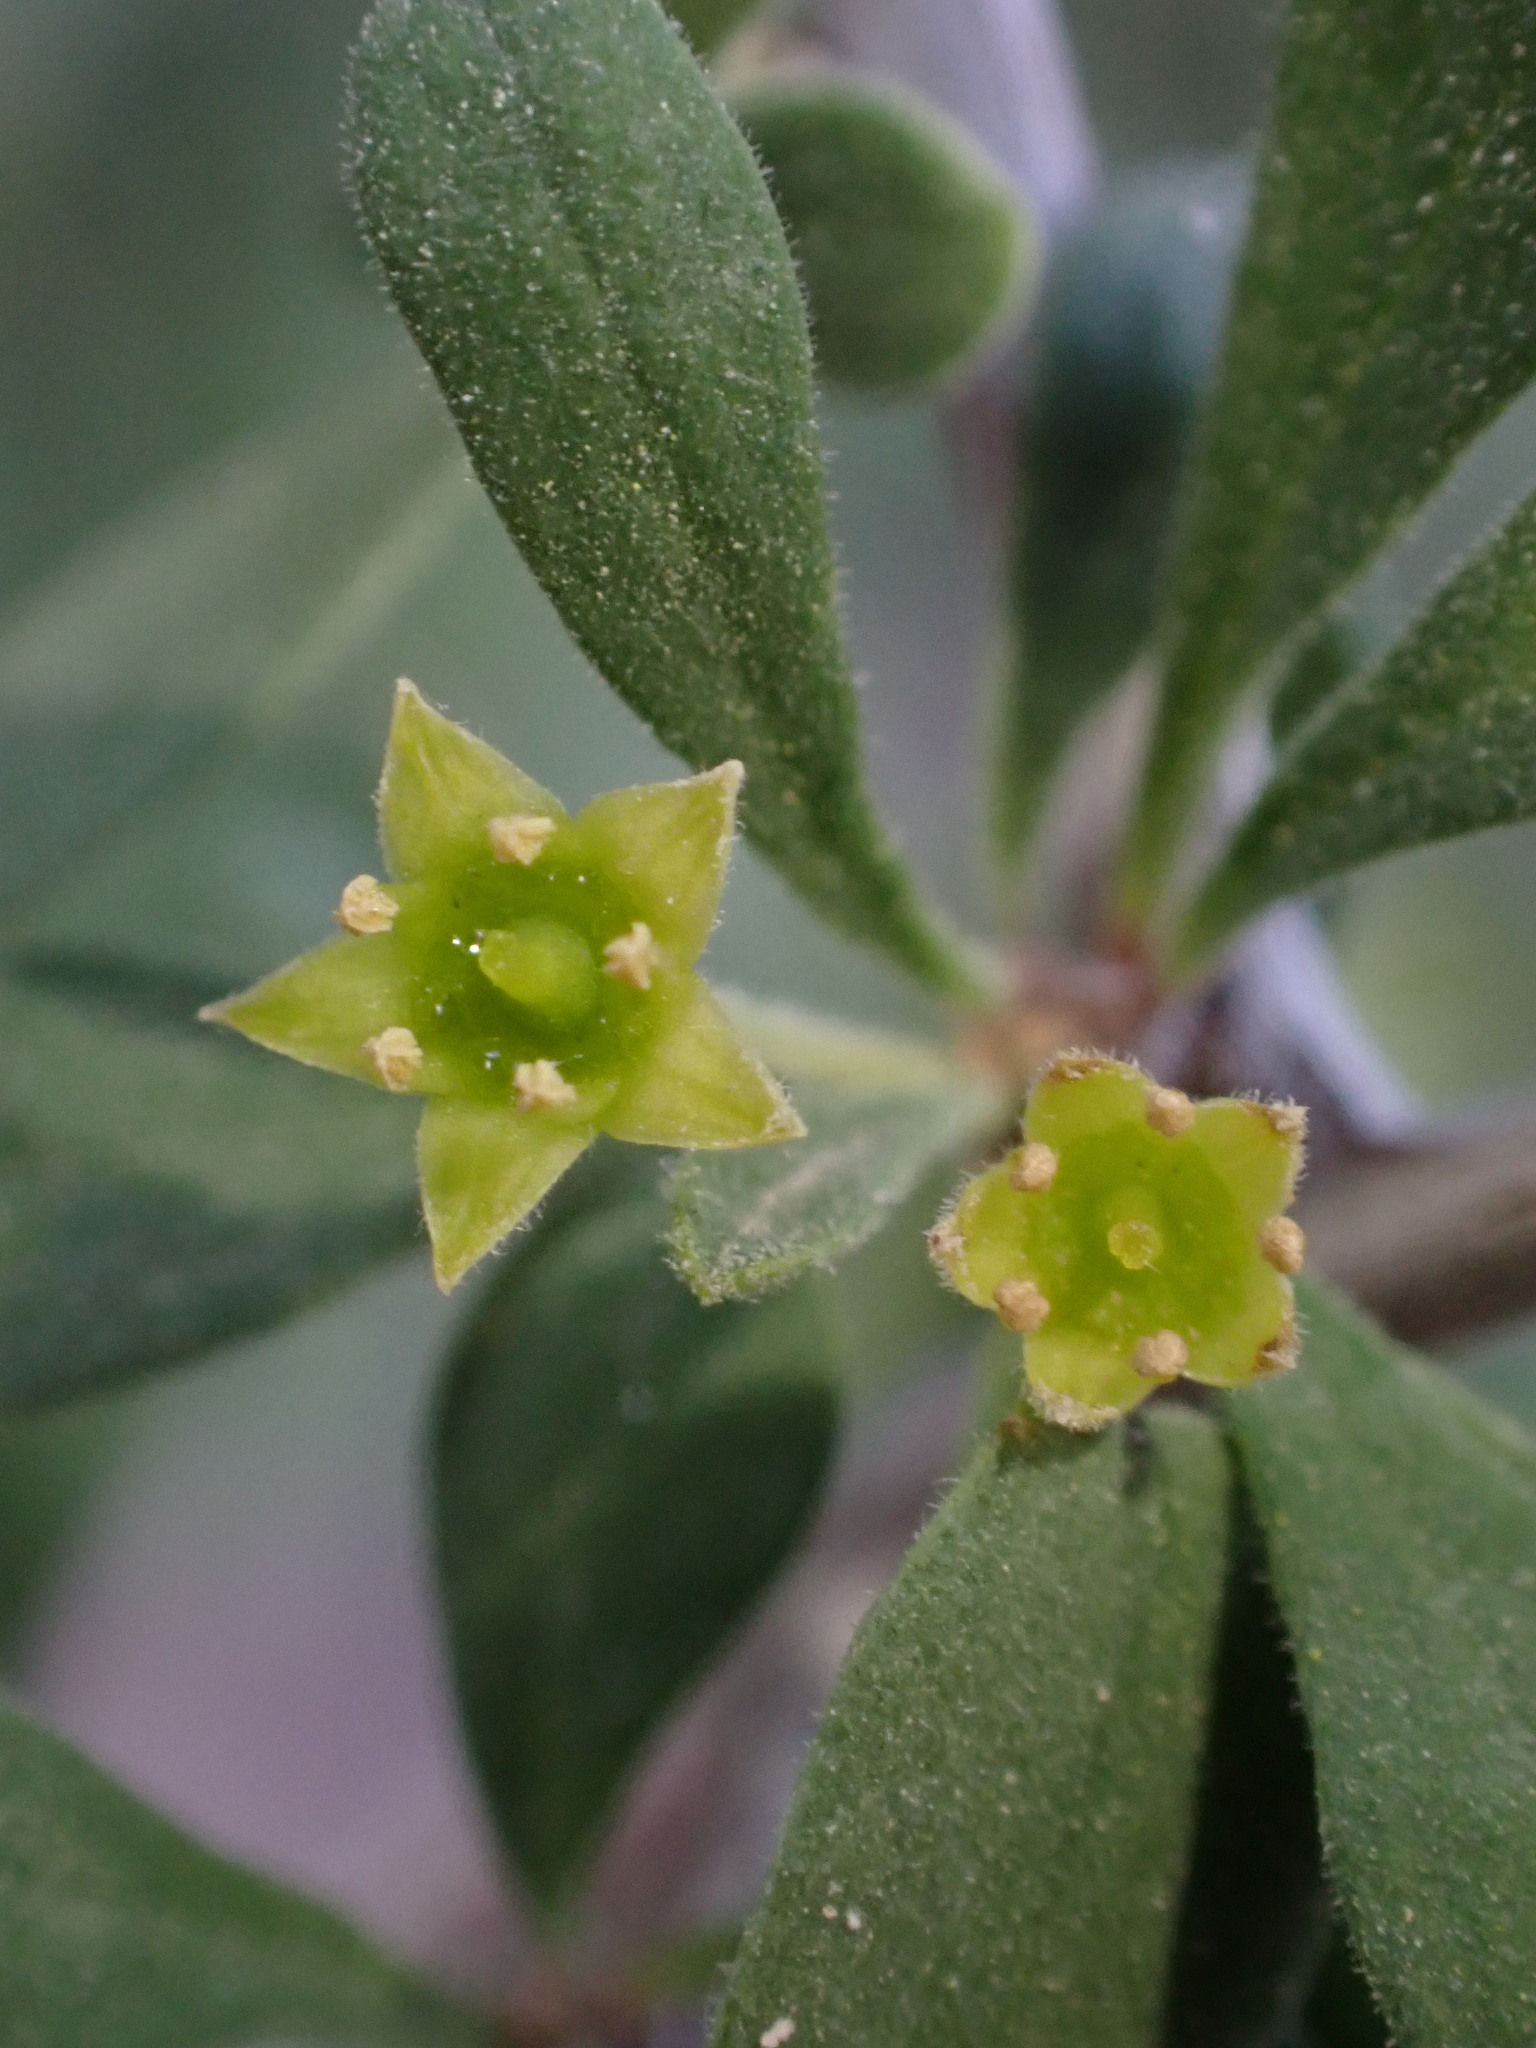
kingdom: Plantae
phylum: Tracheophyta
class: Magnoliopsida
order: Rosales
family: Rhamnaceae
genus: Condalia
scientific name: Condalia globosa
